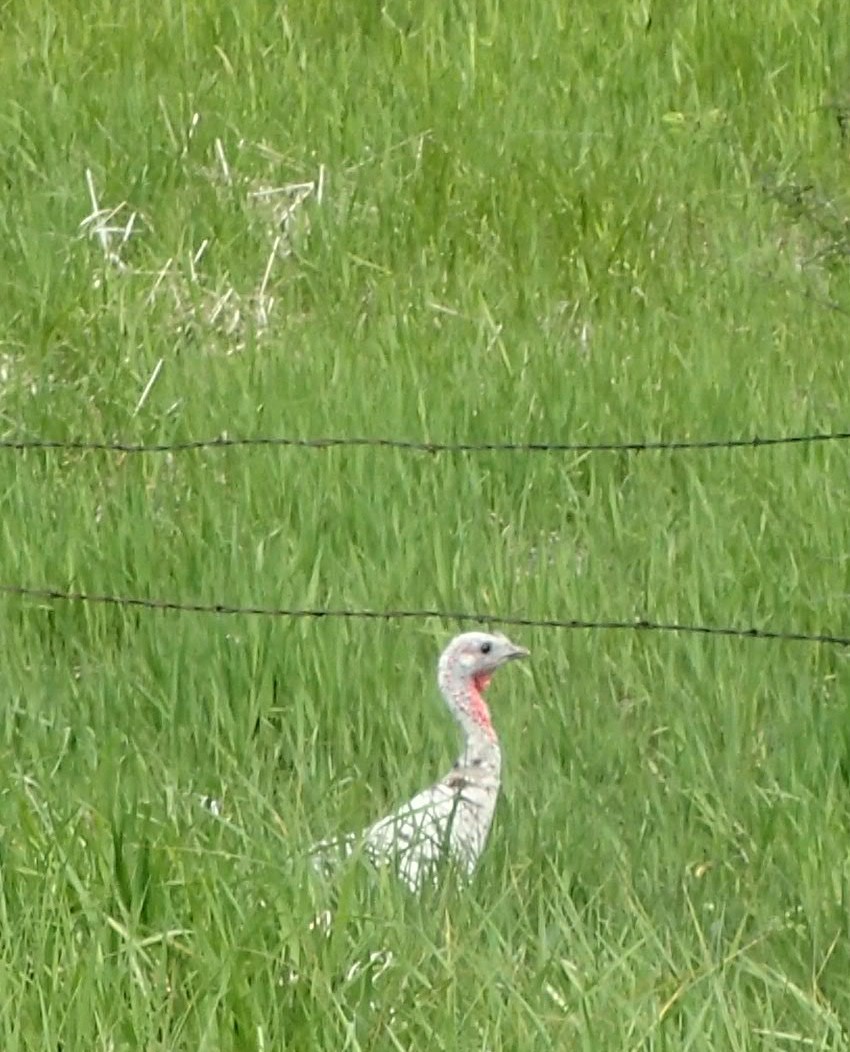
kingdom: Animalia
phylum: Chordata
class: Aves
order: Galliformes
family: Phasianidae
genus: Meleagris
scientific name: Meleagris gallopavo
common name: Wild turkey
